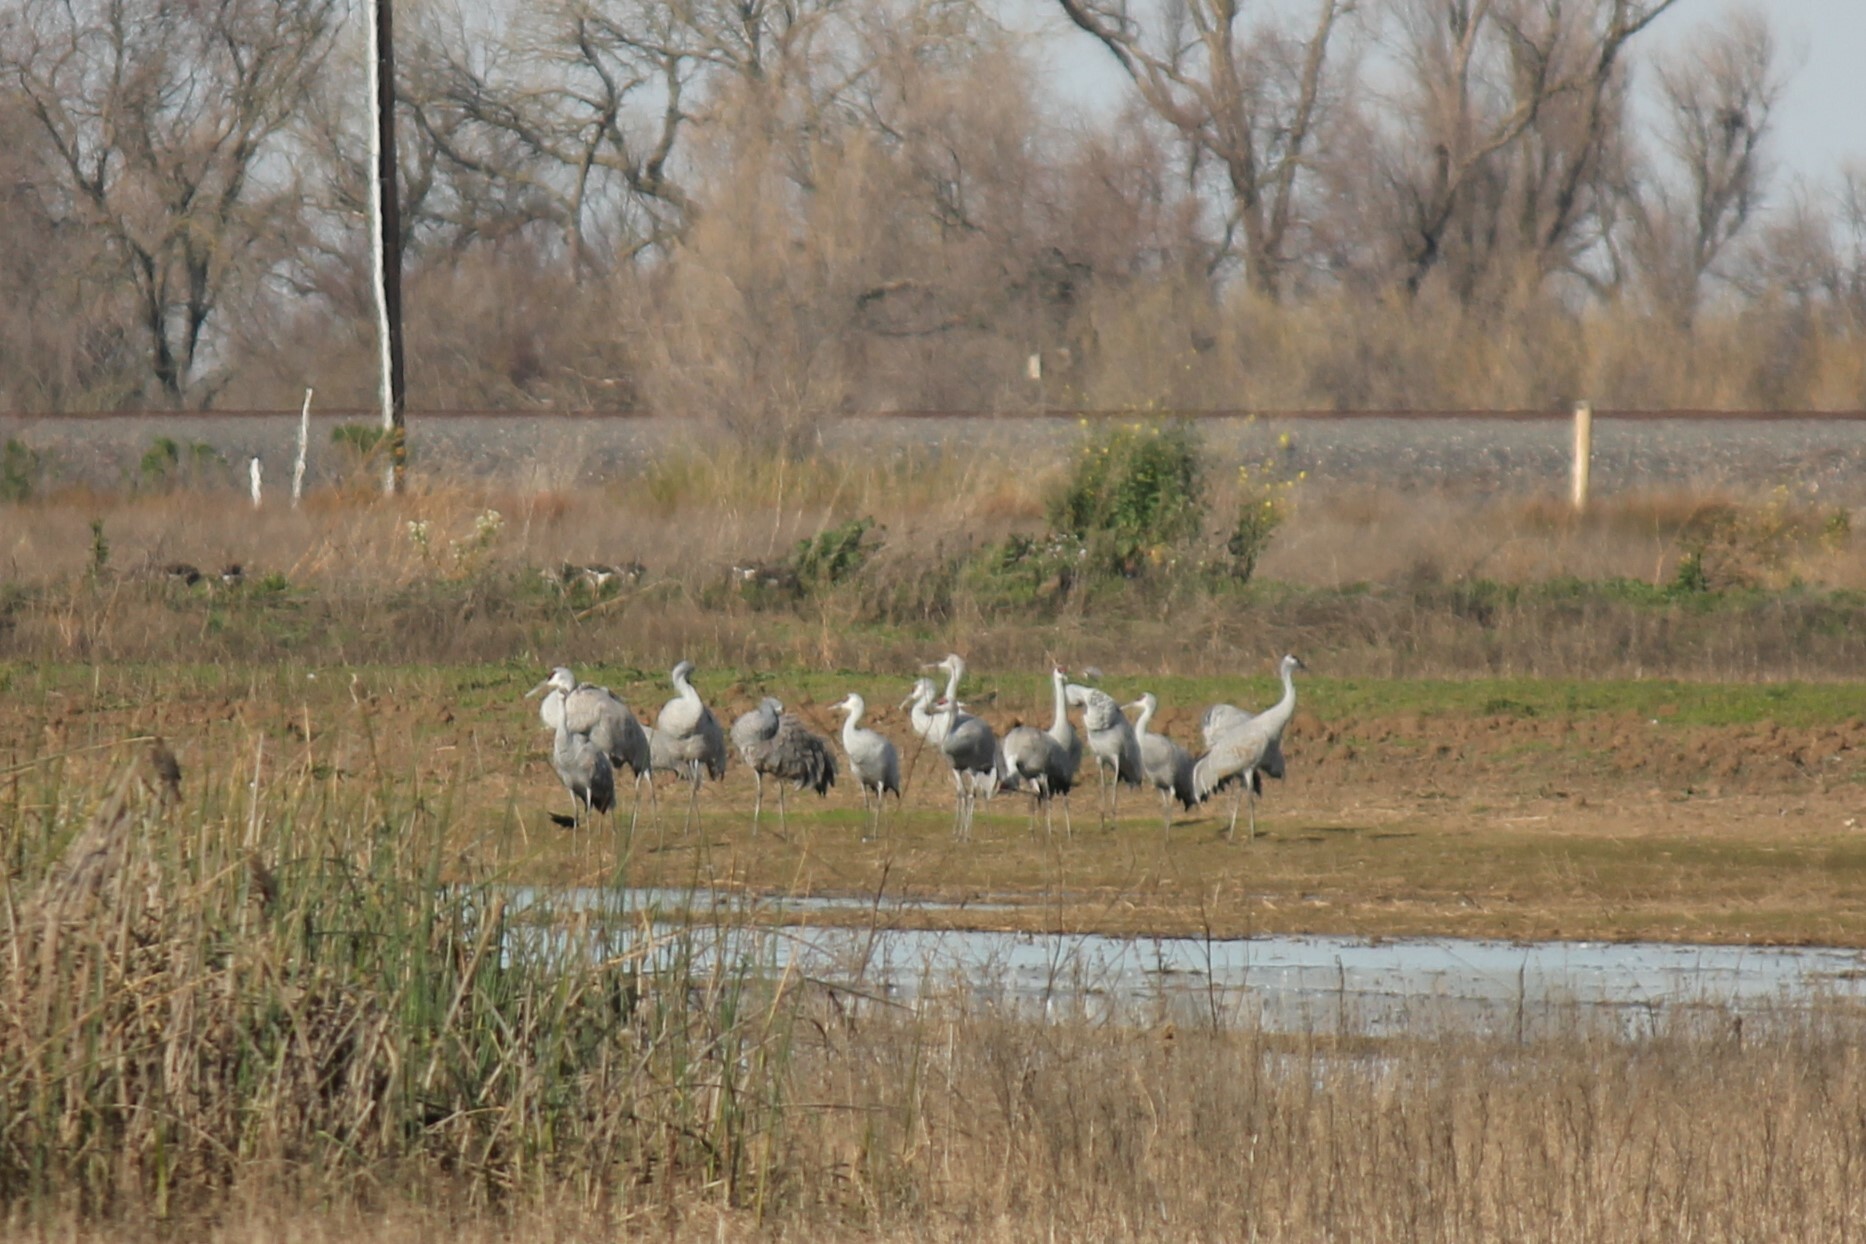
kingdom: Animalia
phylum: Chordata
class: Aves
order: Gruiformes
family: Gruidae
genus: Grus
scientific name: Grus canadensis
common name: Sandhill crane
